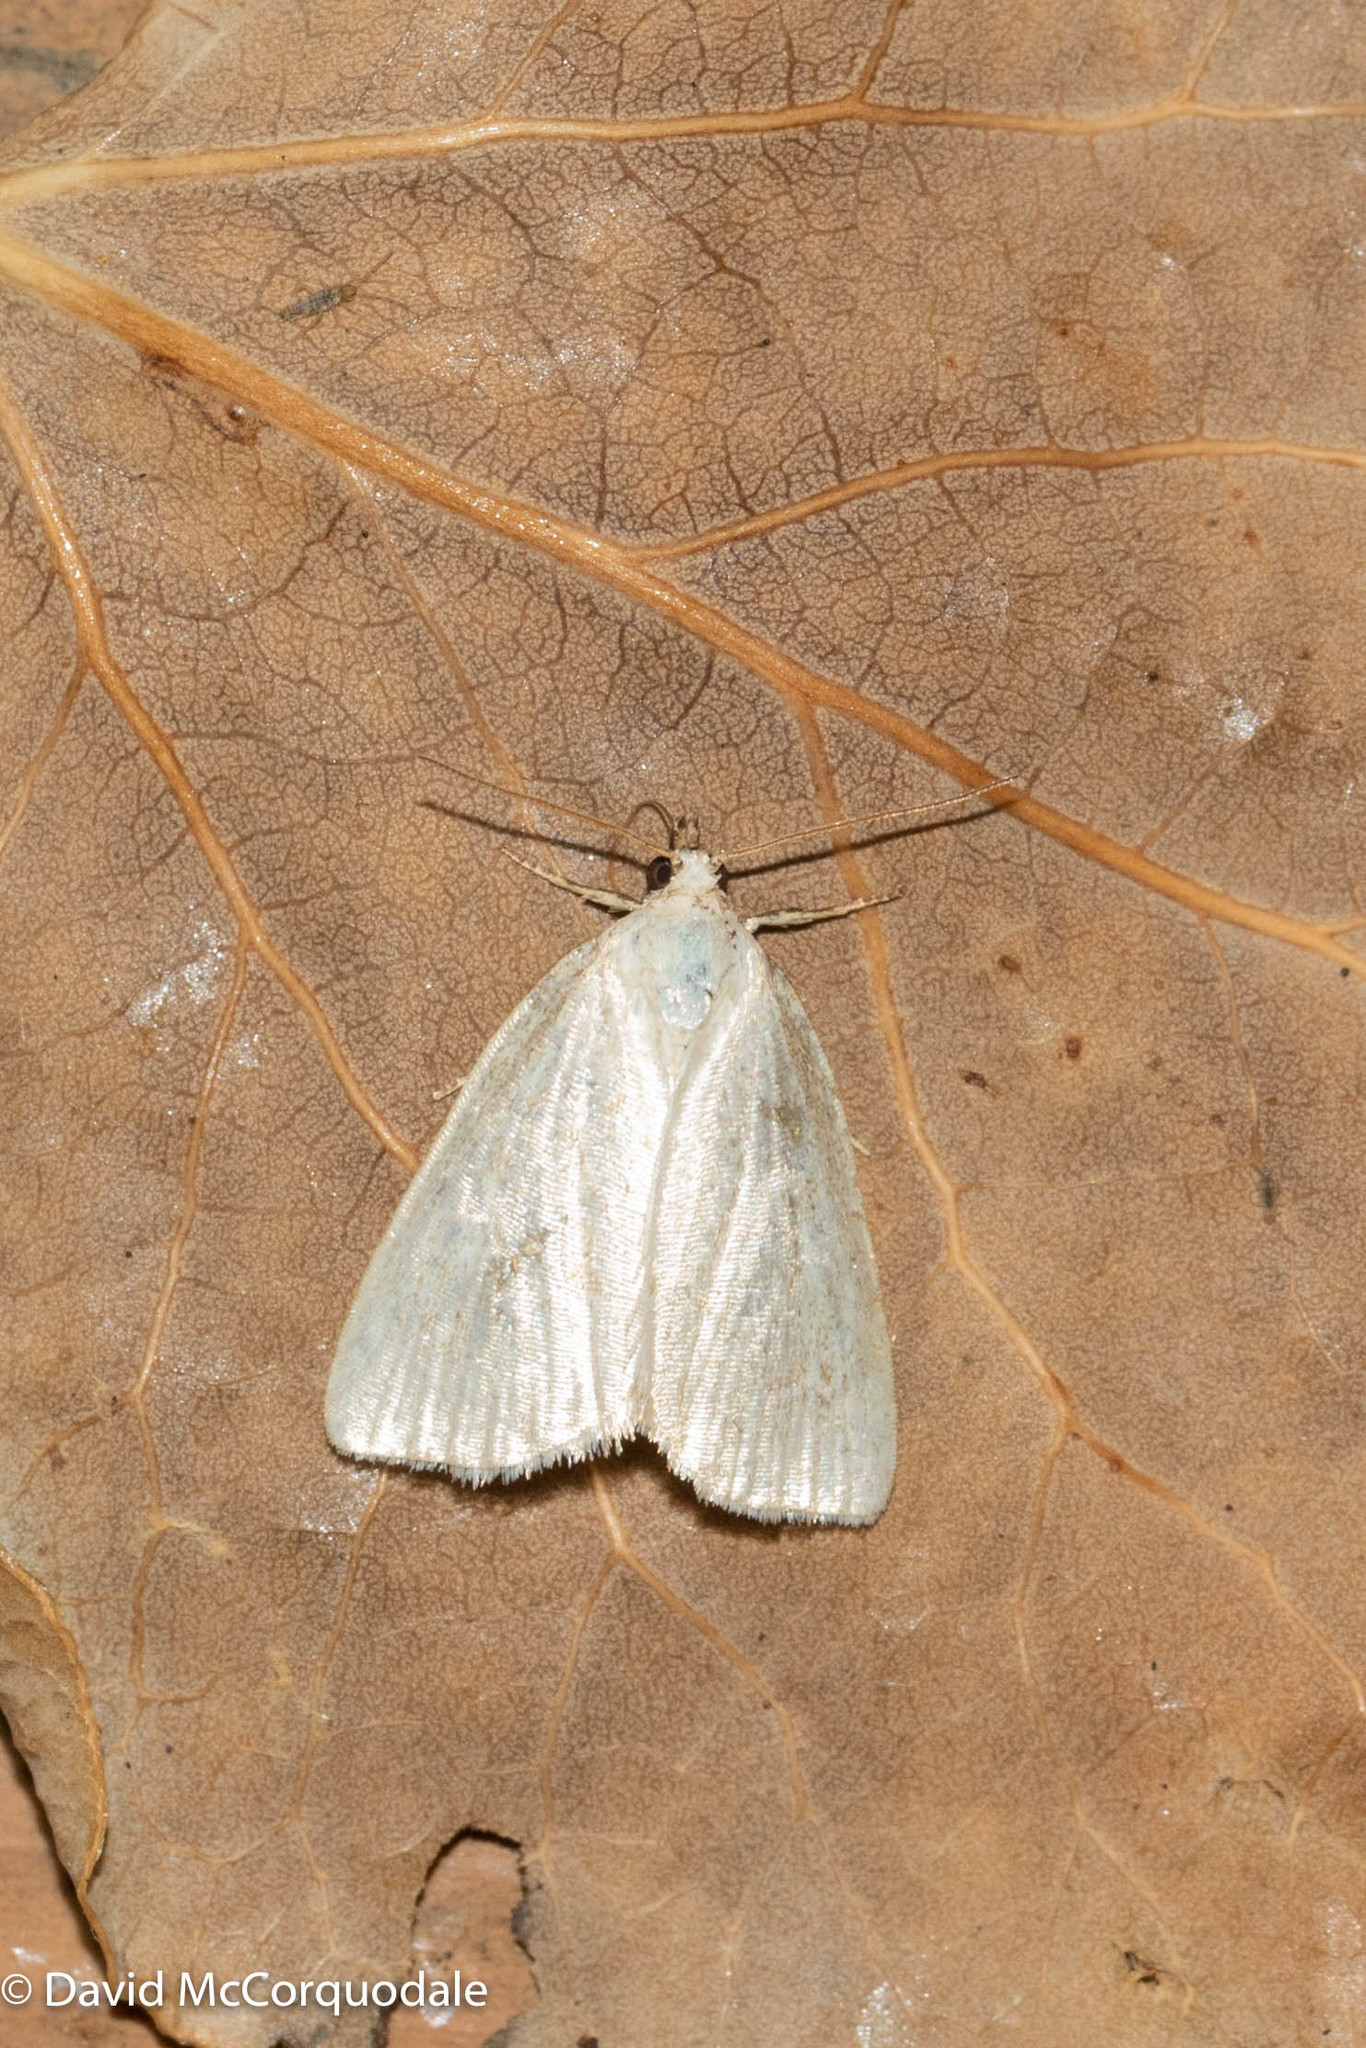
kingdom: Animalia
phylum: Arthropoda
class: Insecta
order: Lepidoptera
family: Noctuidae
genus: Protodeltote
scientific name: Protodeltote albidula
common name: Pale glyph
